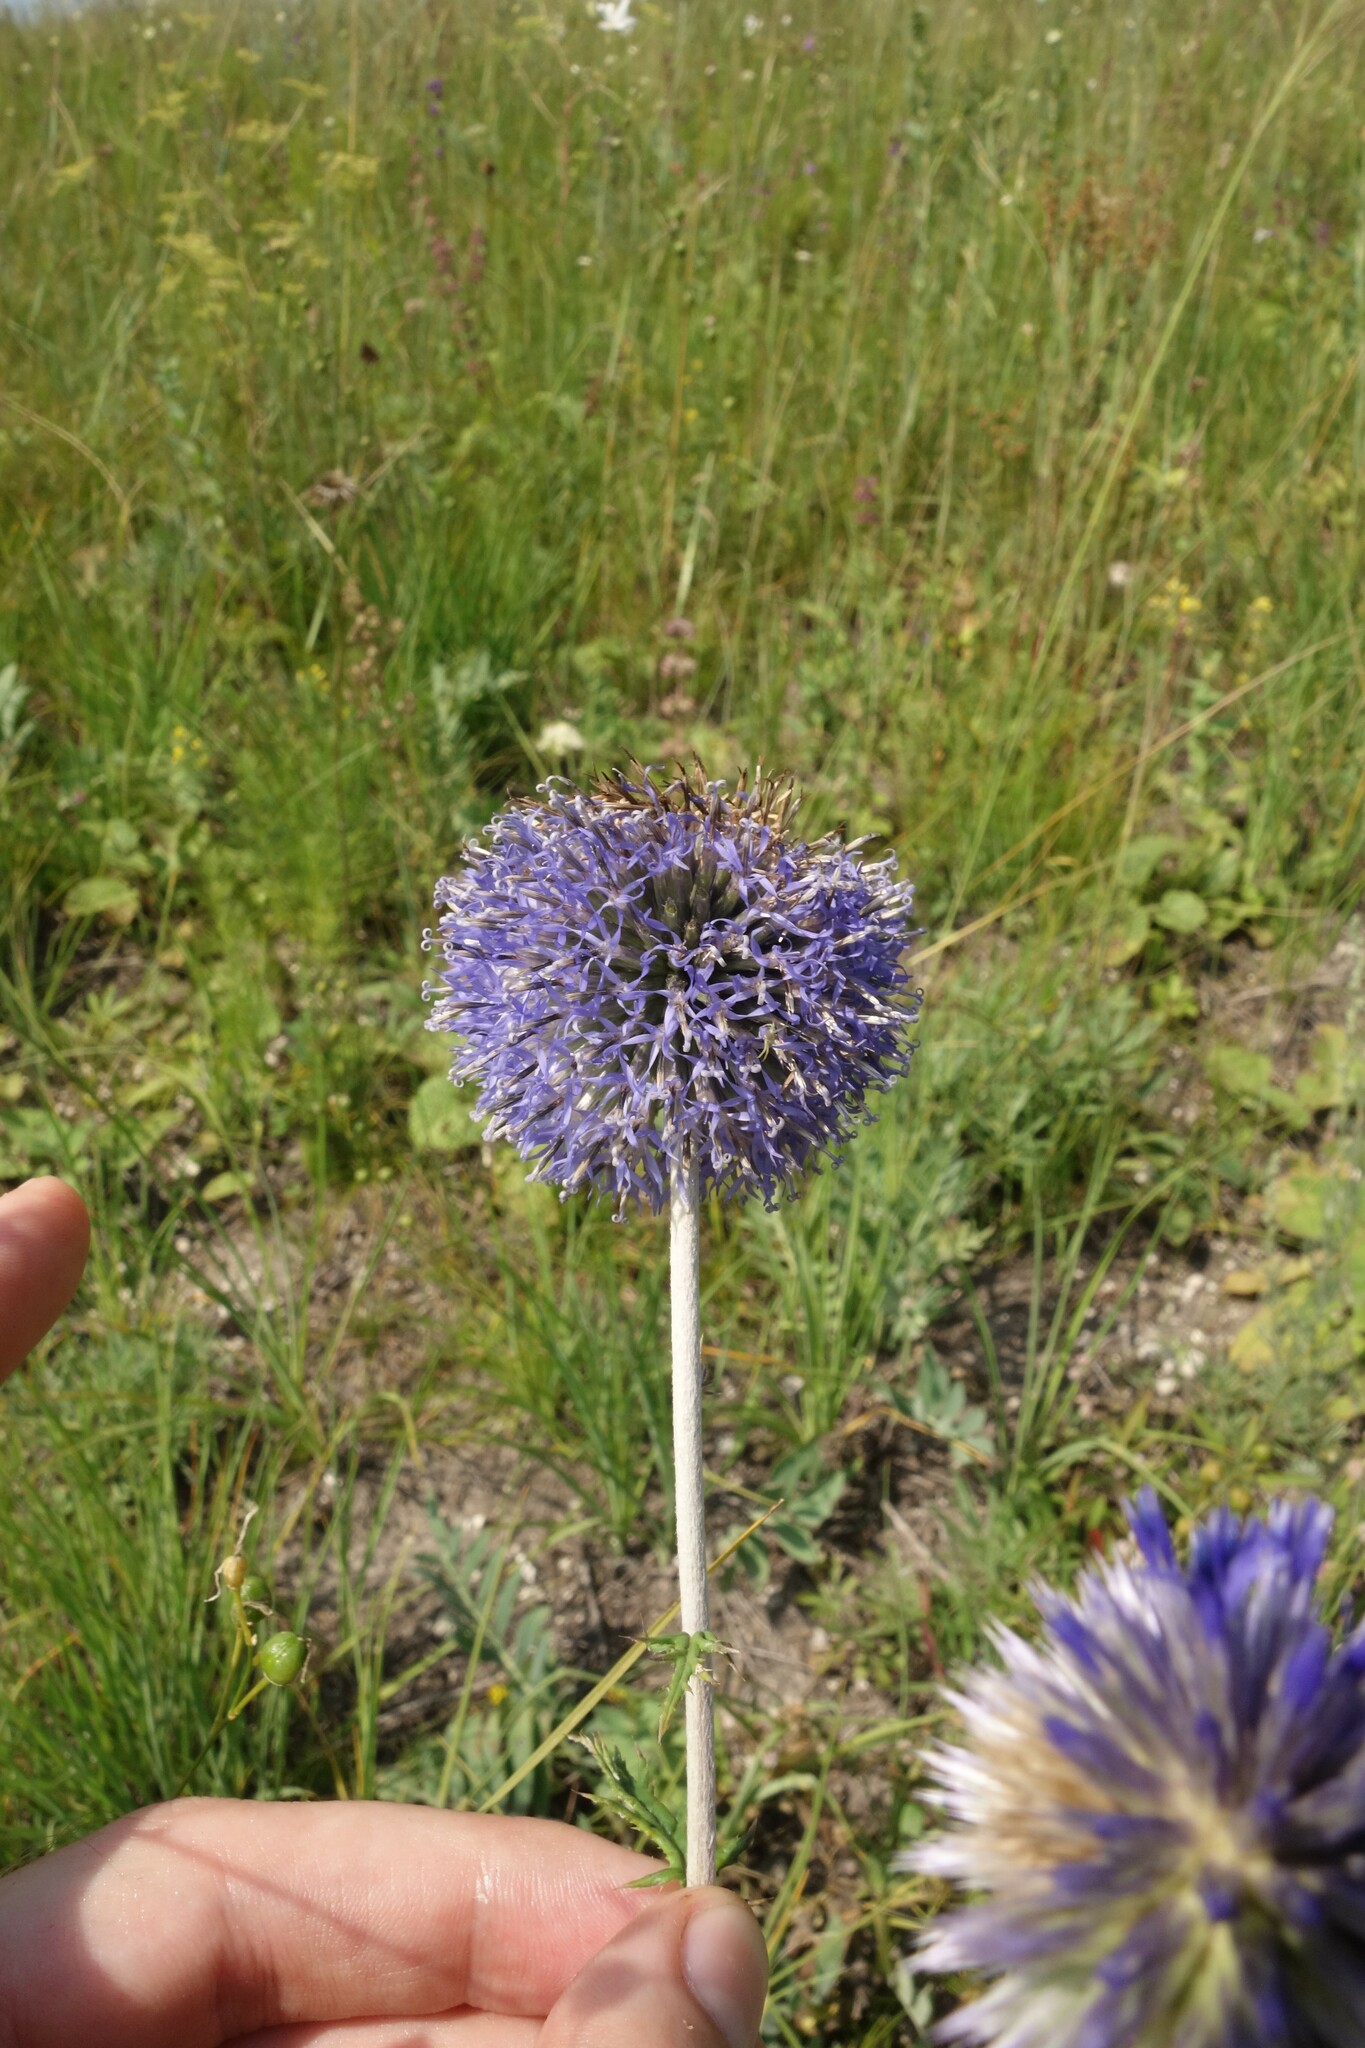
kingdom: Plantae
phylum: Tracheophyta
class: Magnoliopsida
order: Asterales
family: Asteraceae
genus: Echinops
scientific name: Echinops ritro
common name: Globe thistle
